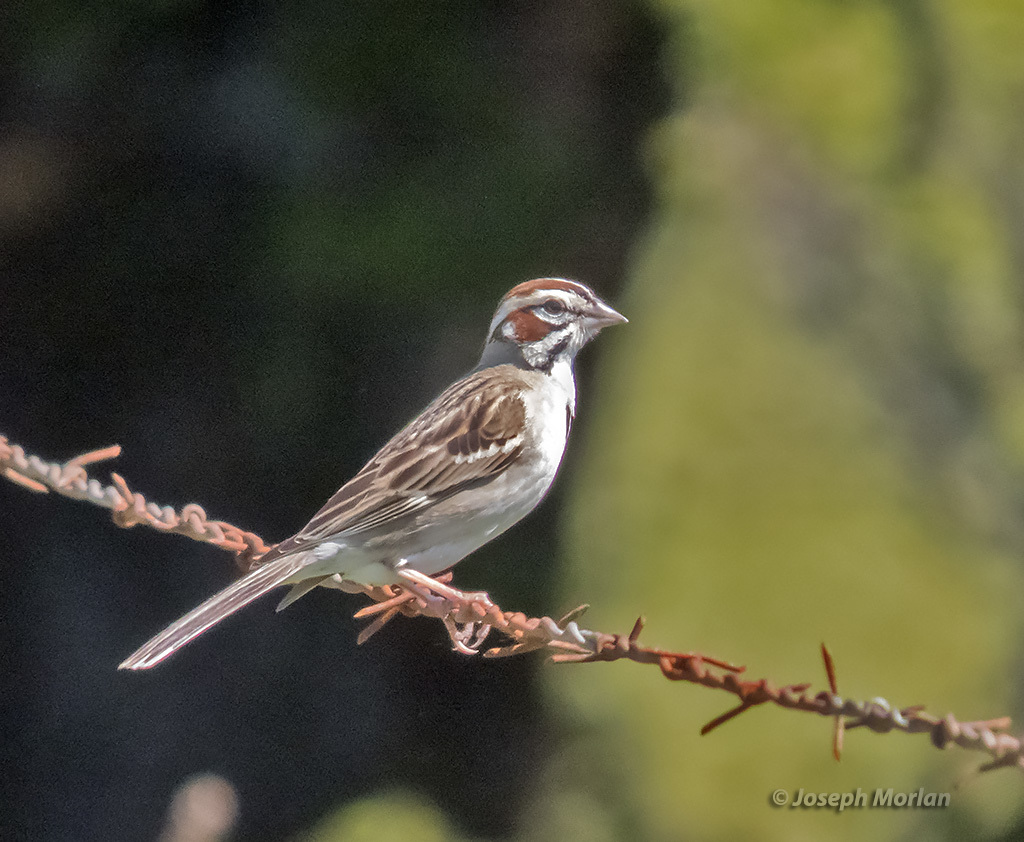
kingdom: Animalia
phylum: Chordata
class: Aves
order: Passeriformes
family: Passerellidae
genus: Chondestes
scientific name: Chondestes grammacus
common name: Lark sparrow
